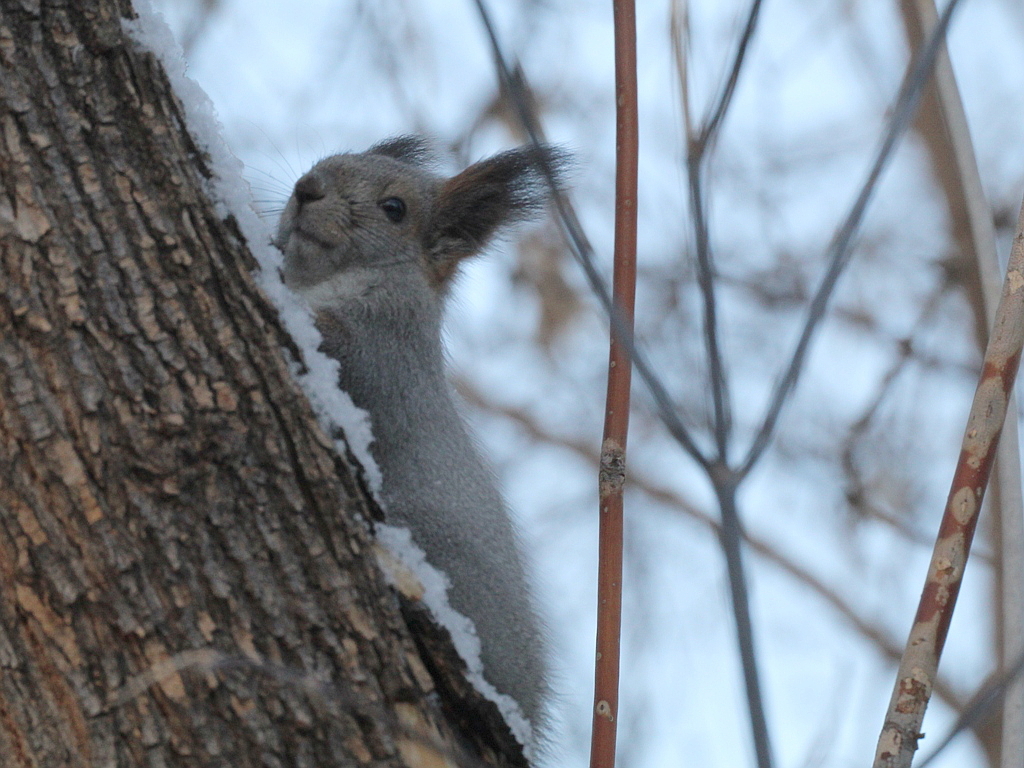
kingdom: Animalia
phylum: Chordata
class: Mammalia
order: Rodentia
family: Sciuridae
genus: Sciurus
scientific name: Sciurus vulgaris
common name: Eurasian red squirrel
